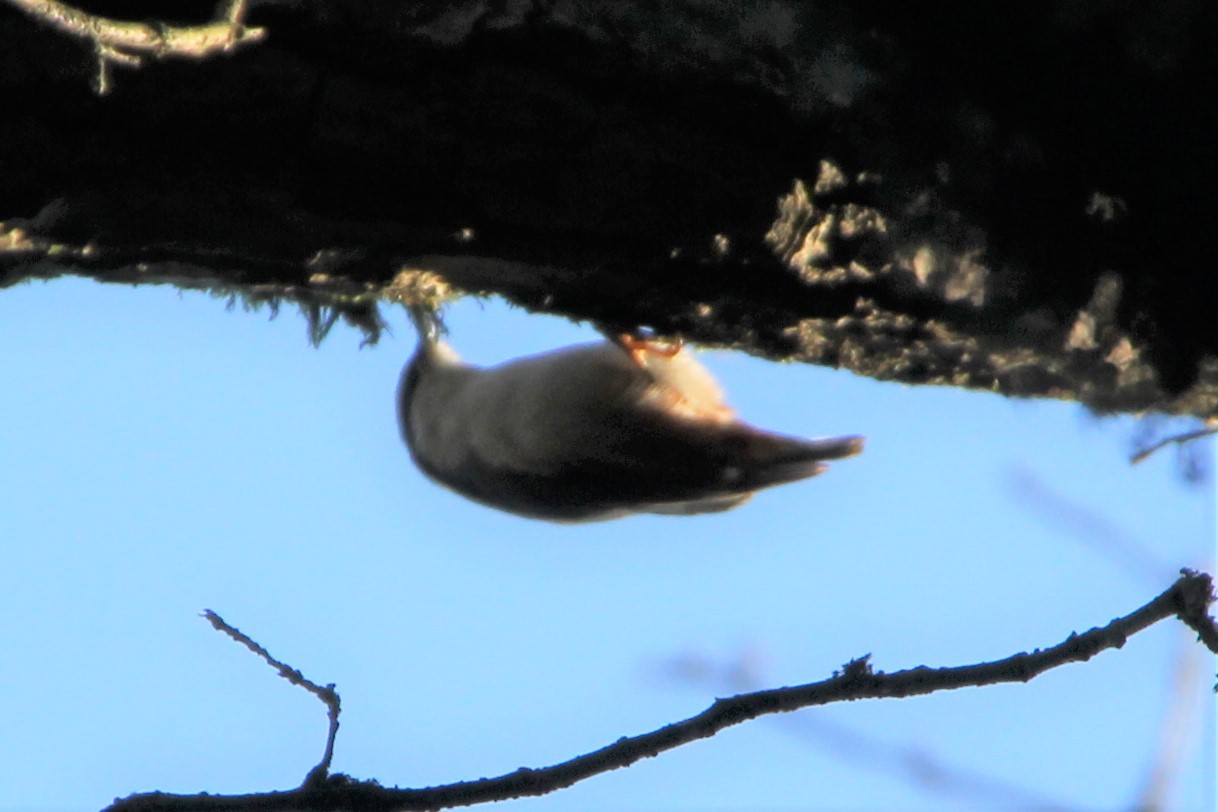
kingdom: Animalia
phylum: Chordata
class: Aves
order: Passeriformes
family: Sittidae
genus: Sitta
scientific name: Sitta europaea
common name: Eurasian nuthatch
